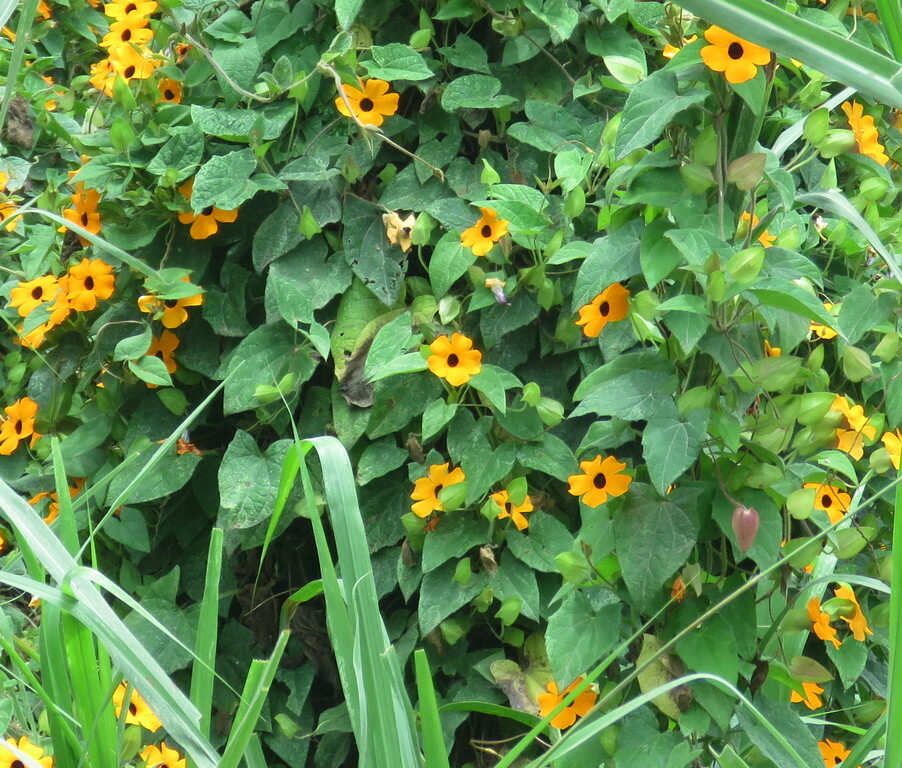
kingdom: Plantae
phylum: Tracheophyta
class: Magnoliopsida
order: Lamiales
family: Acanthaceae
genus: Thunbergia
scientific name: Thunbergia alata
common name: Blackeyed susan vine
